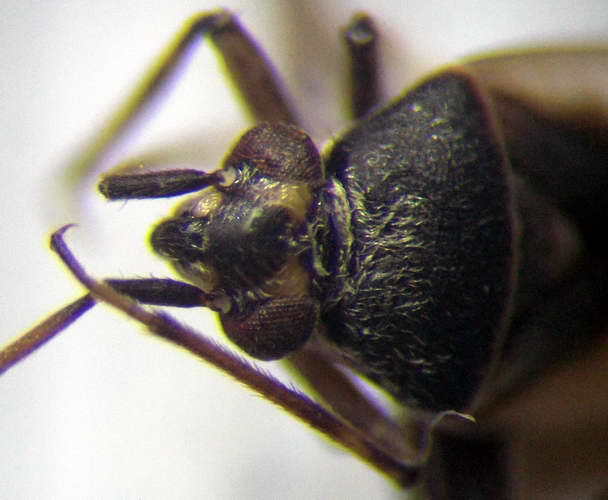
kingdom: Animalia
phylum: Arthropoda
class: Insecta
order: Hemiptera
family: Miridae
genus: Polymerus
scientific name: Polymerus cognatus
